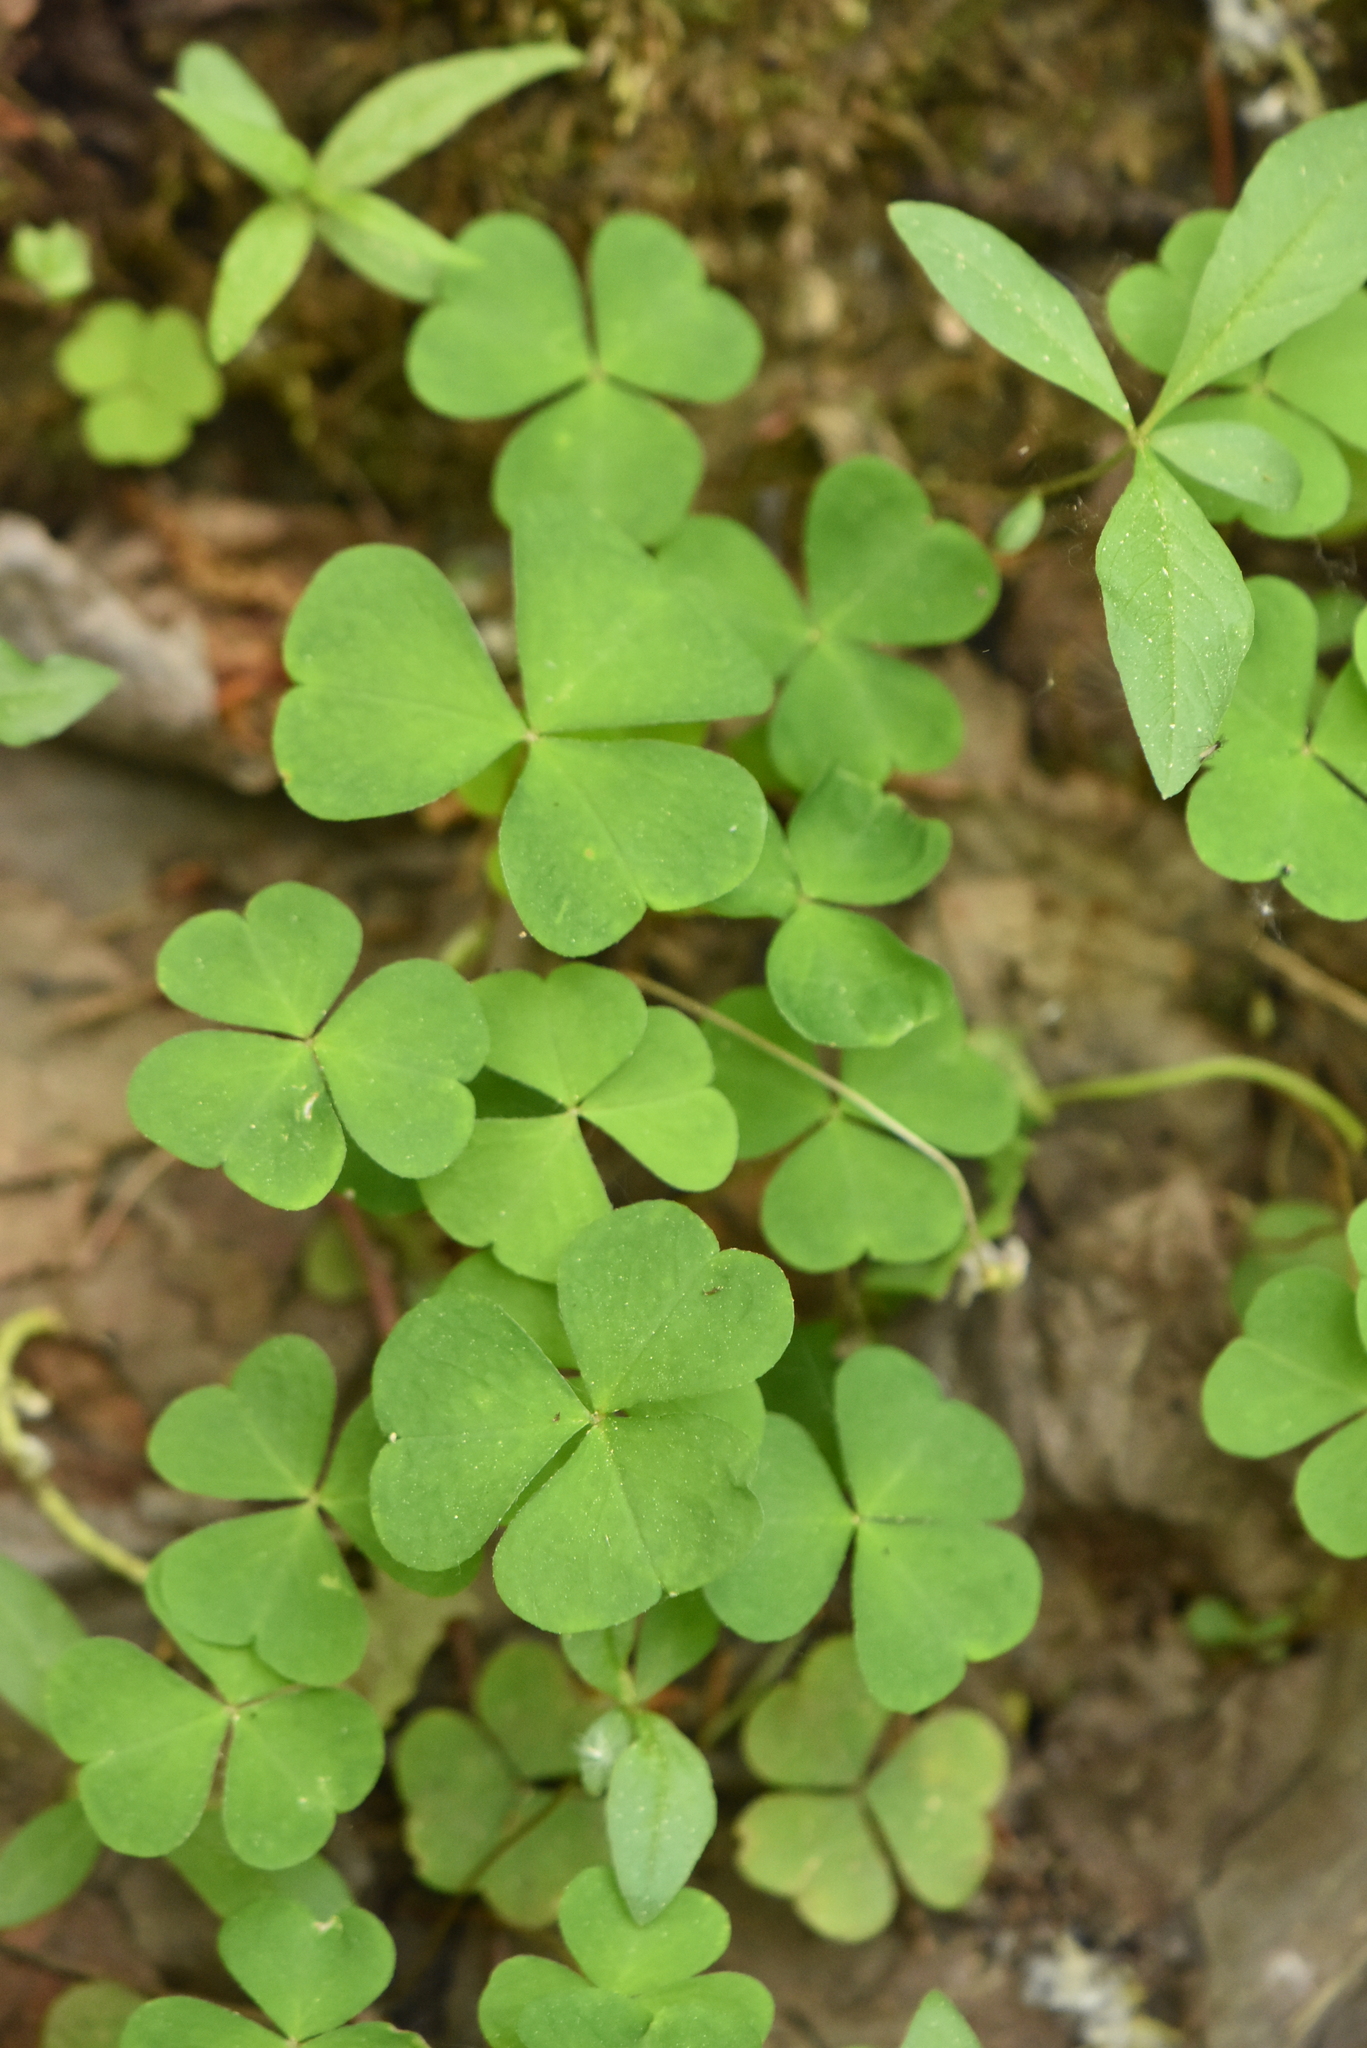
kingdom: Plantae
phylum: Tracheophyta
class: Magnoliopsida
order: Oxalidales
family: Oxalidaceae
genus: Oxalis
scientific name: Oxalis acetosella
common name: Wood-sorrel
